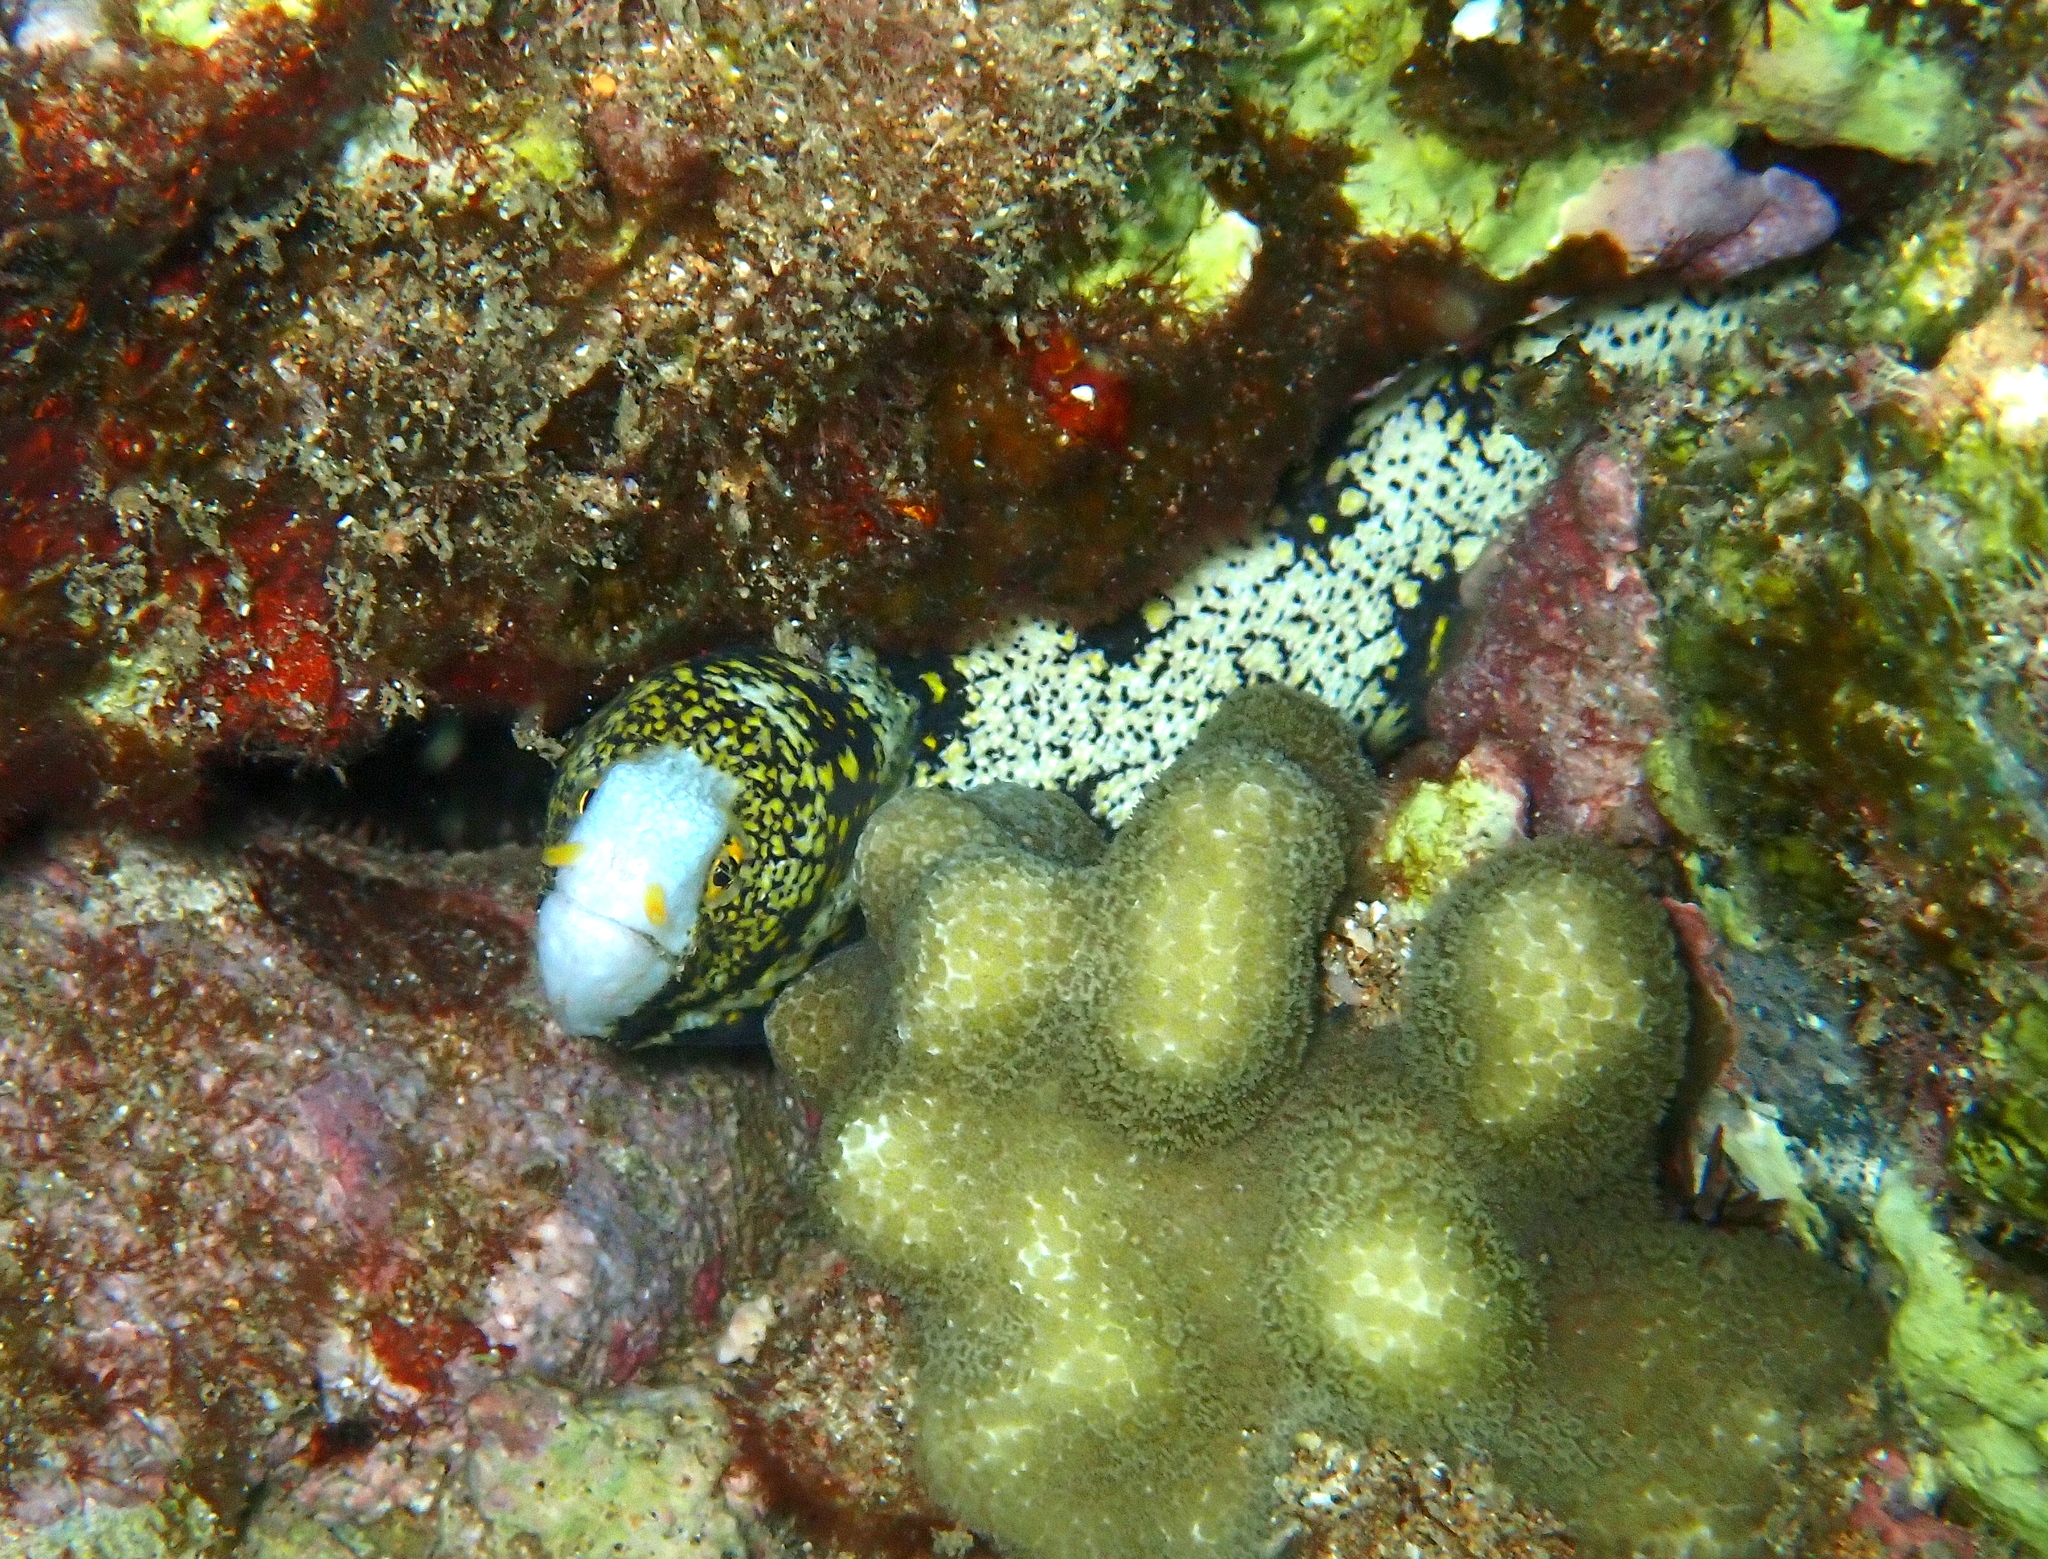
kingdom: Animalia
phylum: Chordata
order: Anguilliformes
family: Muraenidae
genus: Echidna
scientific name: Echidna nebulosa
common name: Snowflake moray
